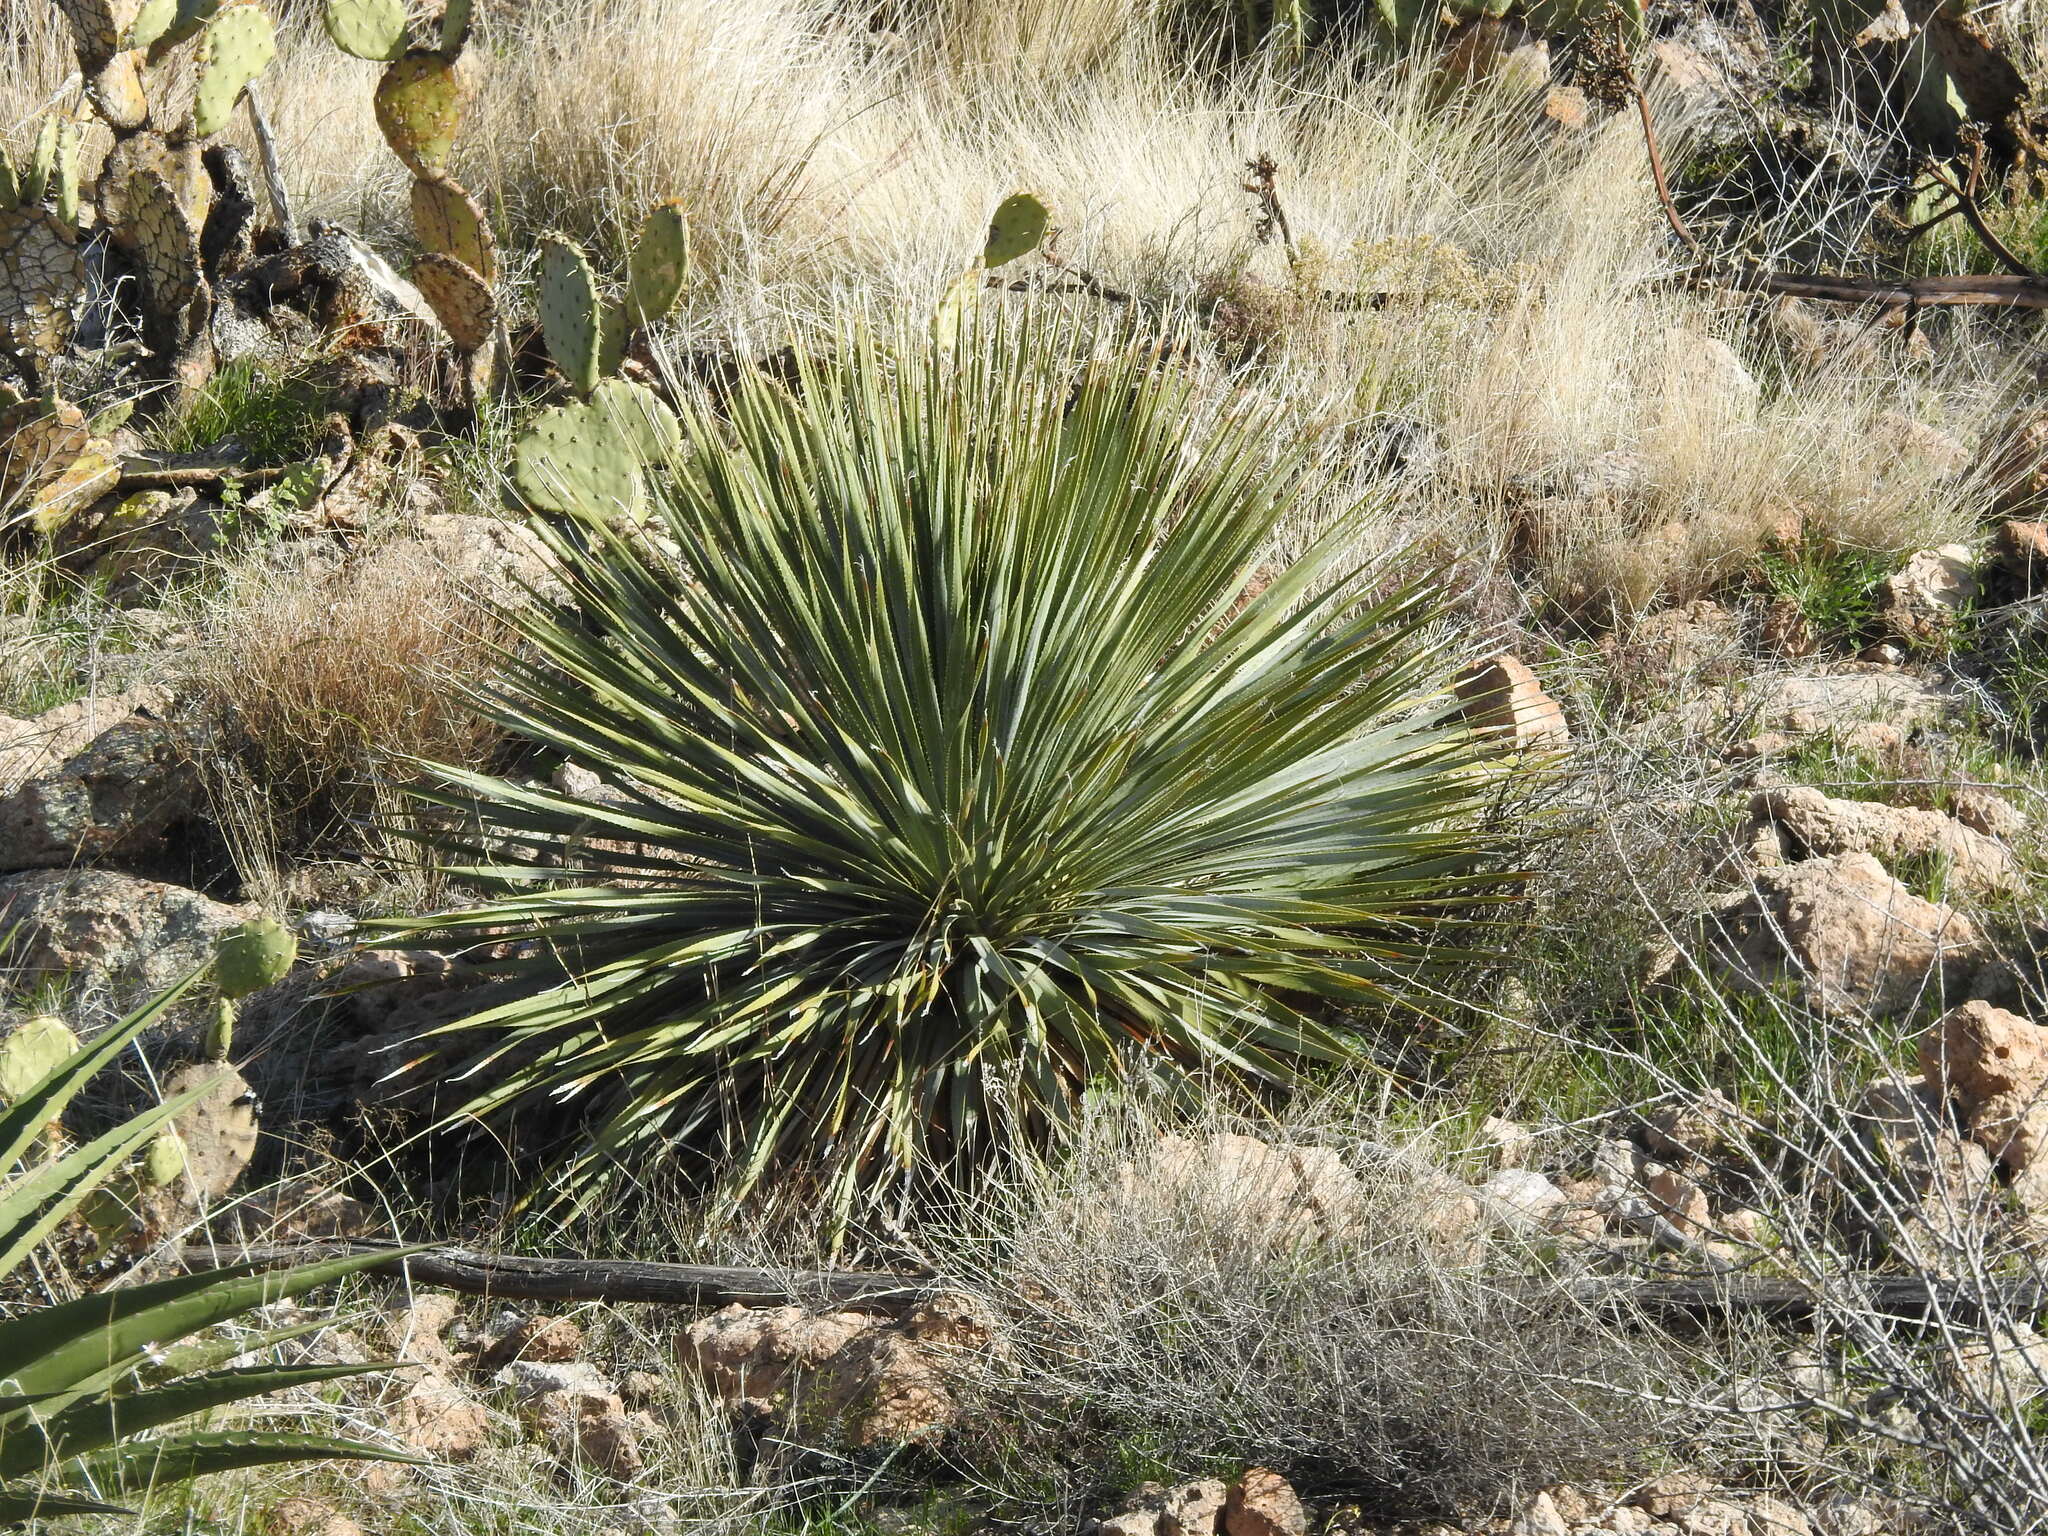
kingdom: Plantae
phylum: Tracheophyta
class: Liliopsida
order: Asparagales
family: Asparagaceae
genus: Dasylirion
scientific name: Dasylirion wheeleri
